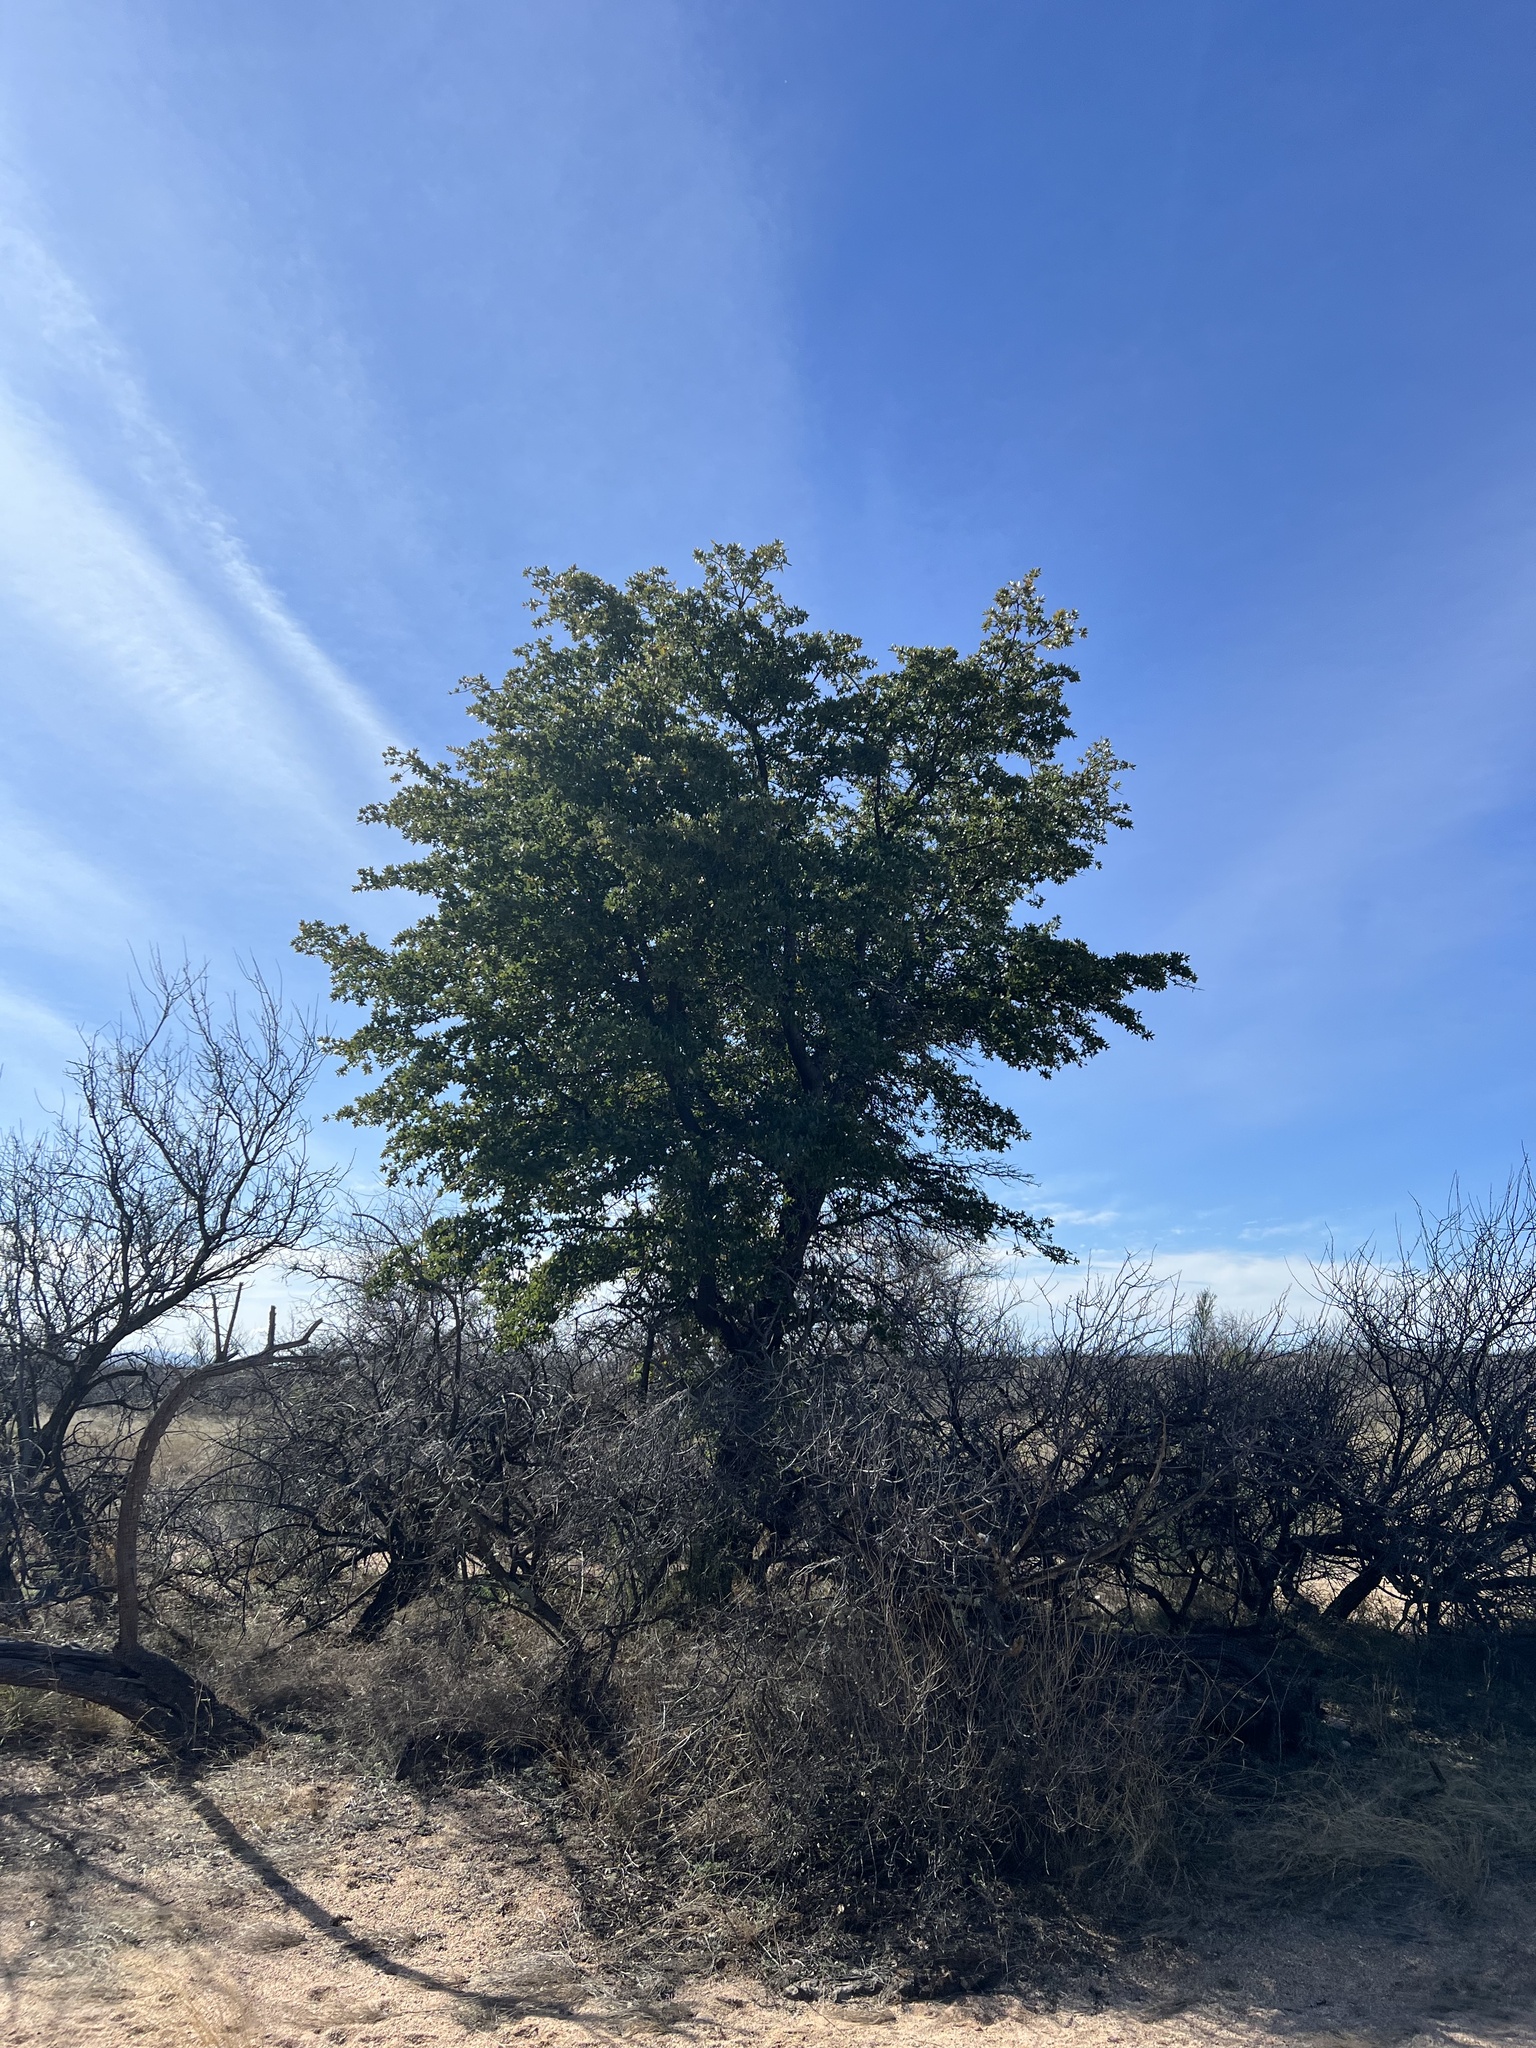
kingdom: Plantae
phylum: Tracheophyta
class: Magnoliopsida
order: Fagales
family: Fagaceae
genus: Quercus
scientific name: Quercus emoryi
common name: Emory oak
